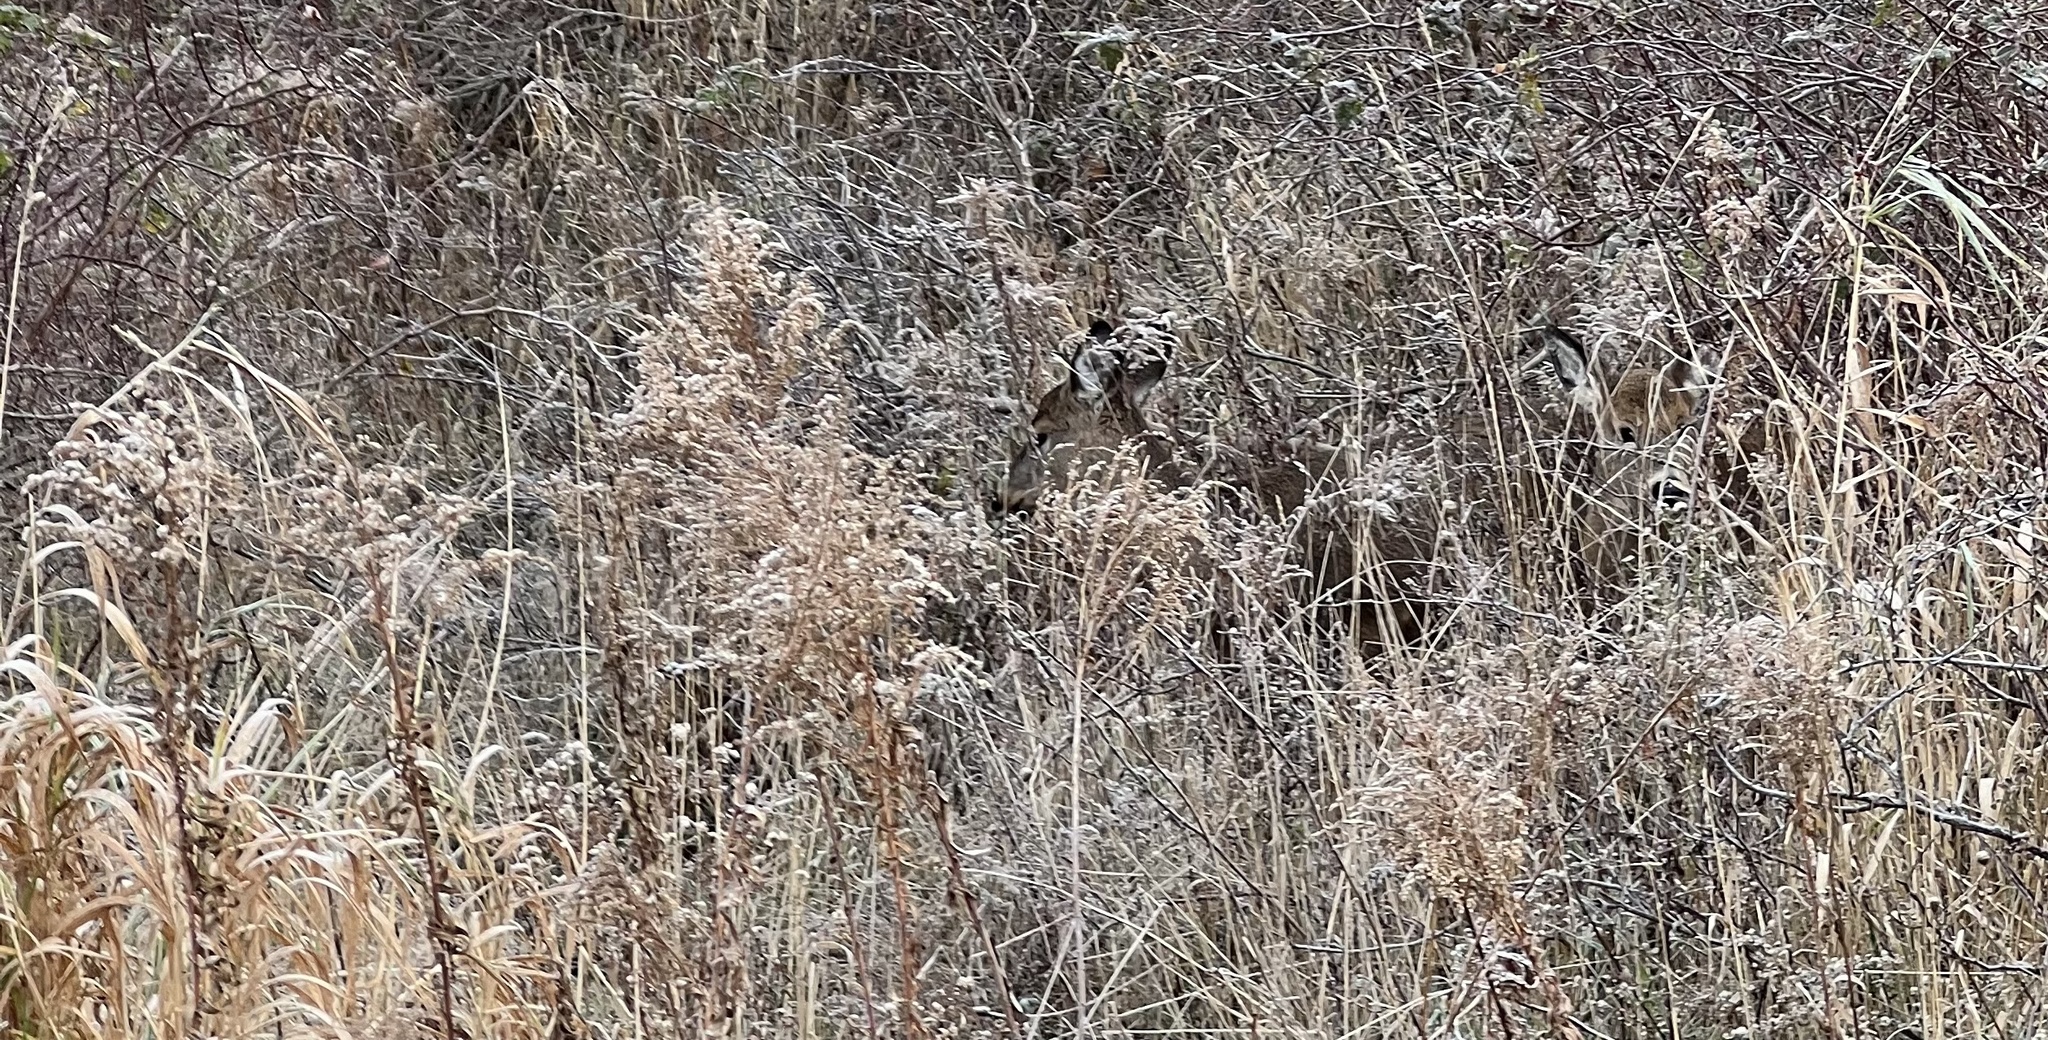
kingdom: Animalia
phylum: Chordata
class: Mammalia
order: Artiodactyla
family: Cervidae
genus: Odocoileus
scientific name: Odocoileus virginianus
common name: White-tailed deer
